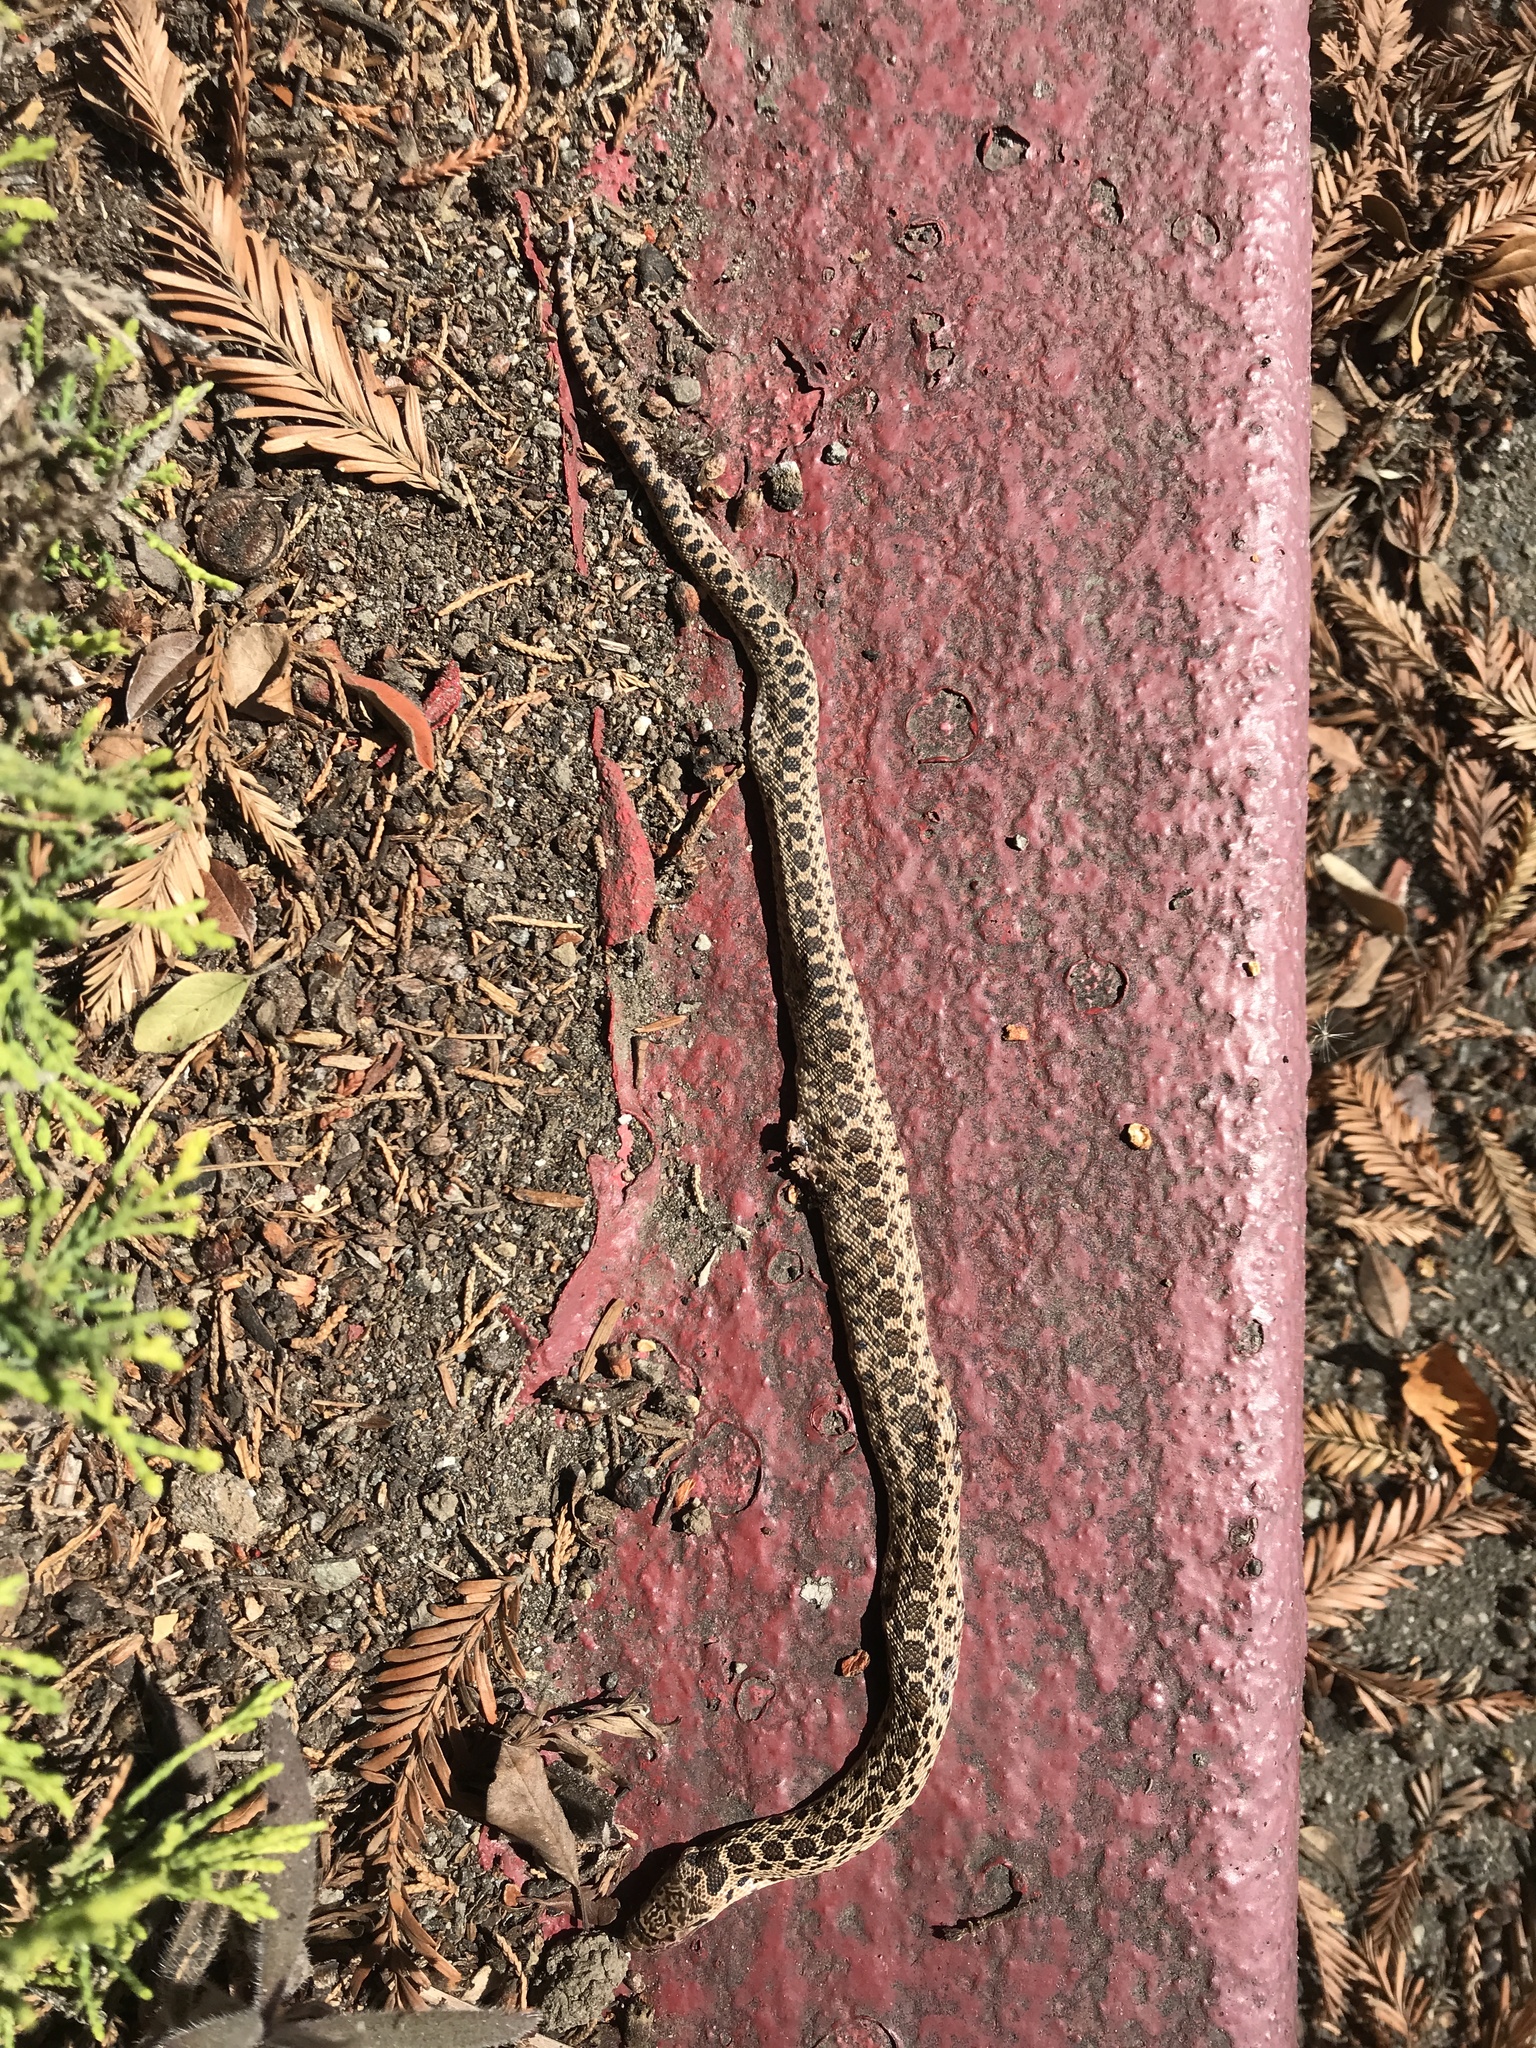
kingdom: Animalia
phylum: Chordata
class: Squamata
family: Colubridae
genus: Pituophis
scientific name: Pituophis catenifer
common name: Gopher snake
